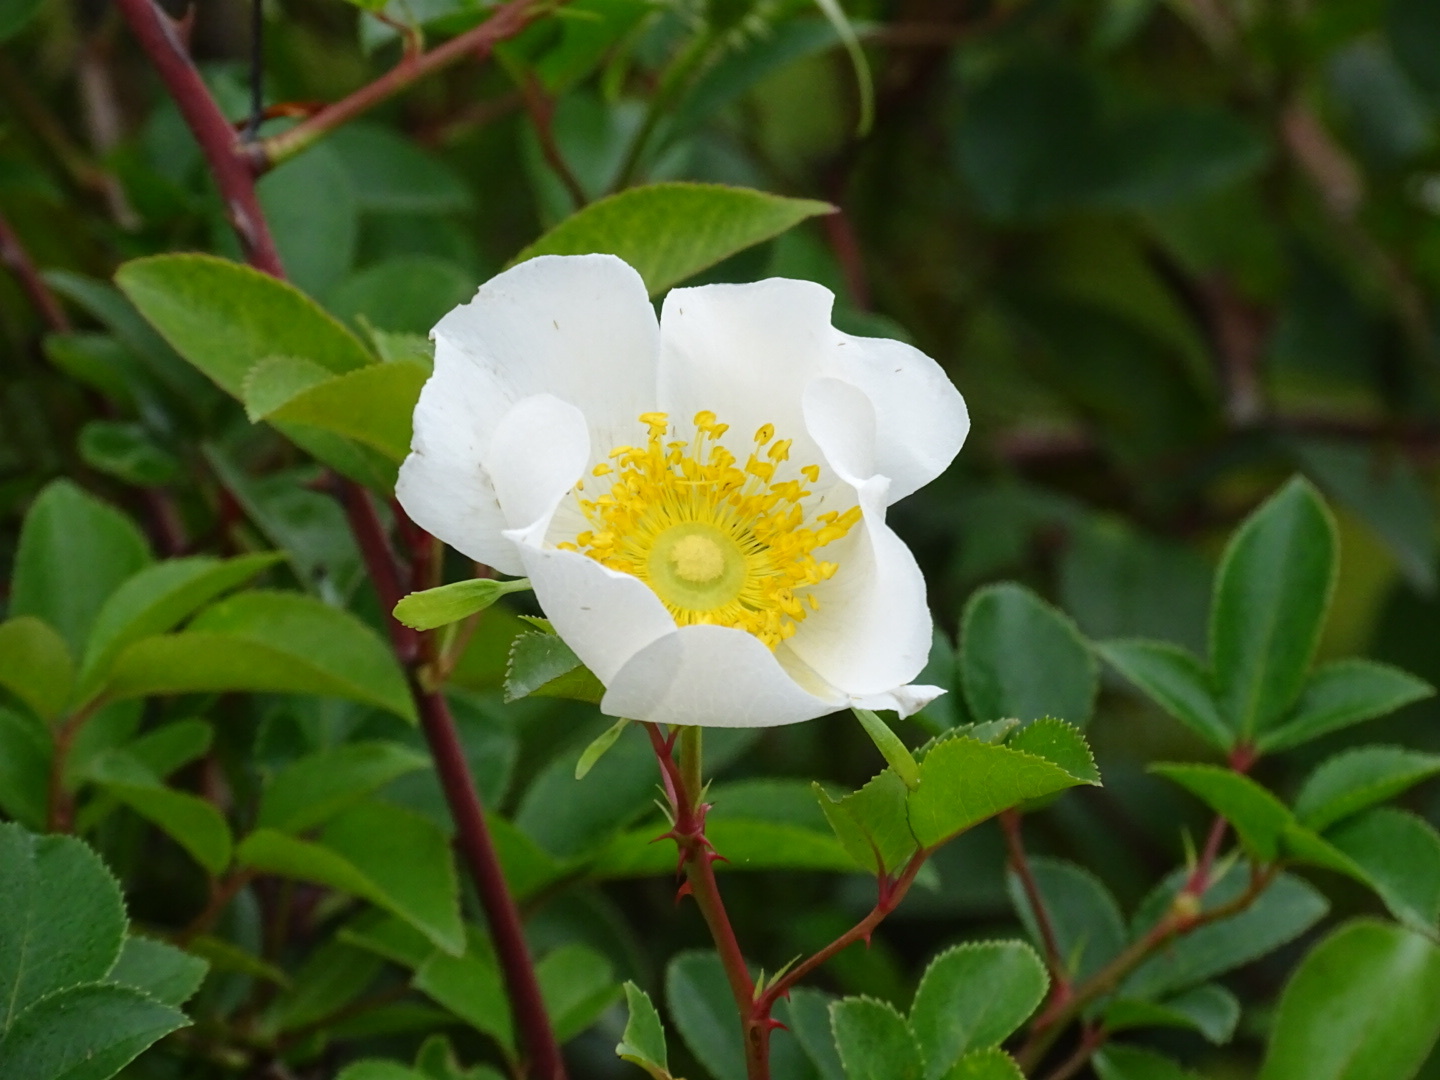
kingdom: Plantae
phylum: Tracheophyta
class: Magnoliopsida
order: Rosales
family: Rosaceae
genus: Rosa
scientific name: Rosa laevigata
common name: Cherokee rose
